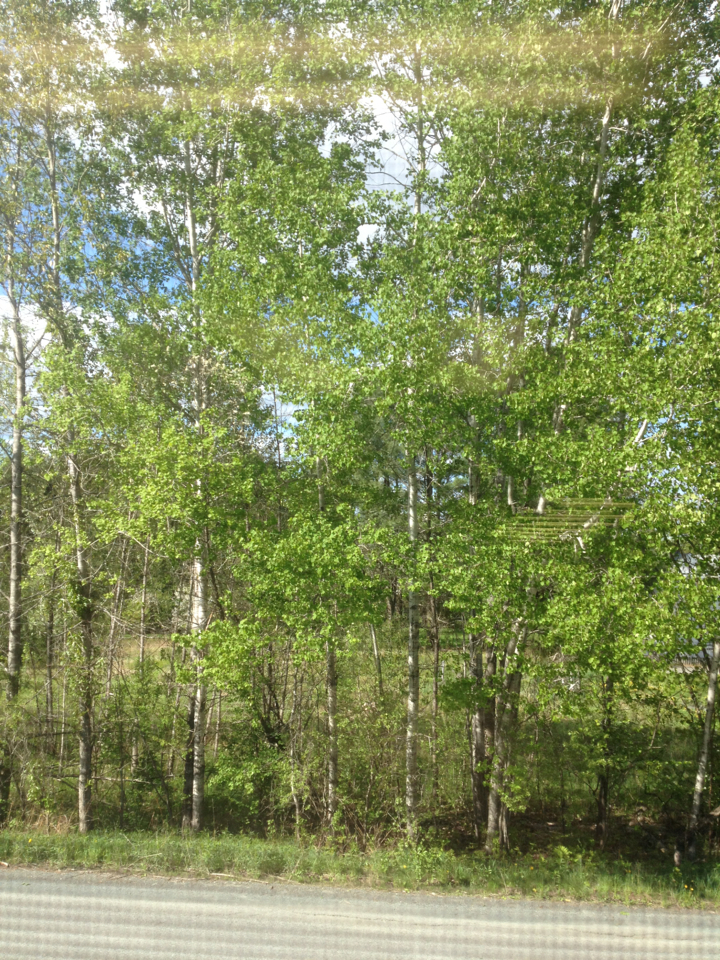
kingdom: Plantae
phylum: Tracheophyta
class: Magnoliopsida
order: Malpighiales
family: Salicaceae
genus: Populus
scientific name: Populus tremuloides
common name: Quaking aspen
